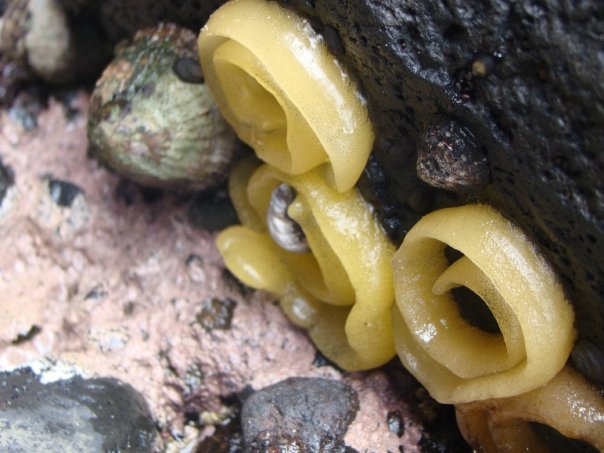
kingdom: Animalia
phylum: Mollusca
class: Gastropoda
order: Siphonariida
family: Siphonariidae
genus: Benhamina
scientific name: Benhamina obliquata
